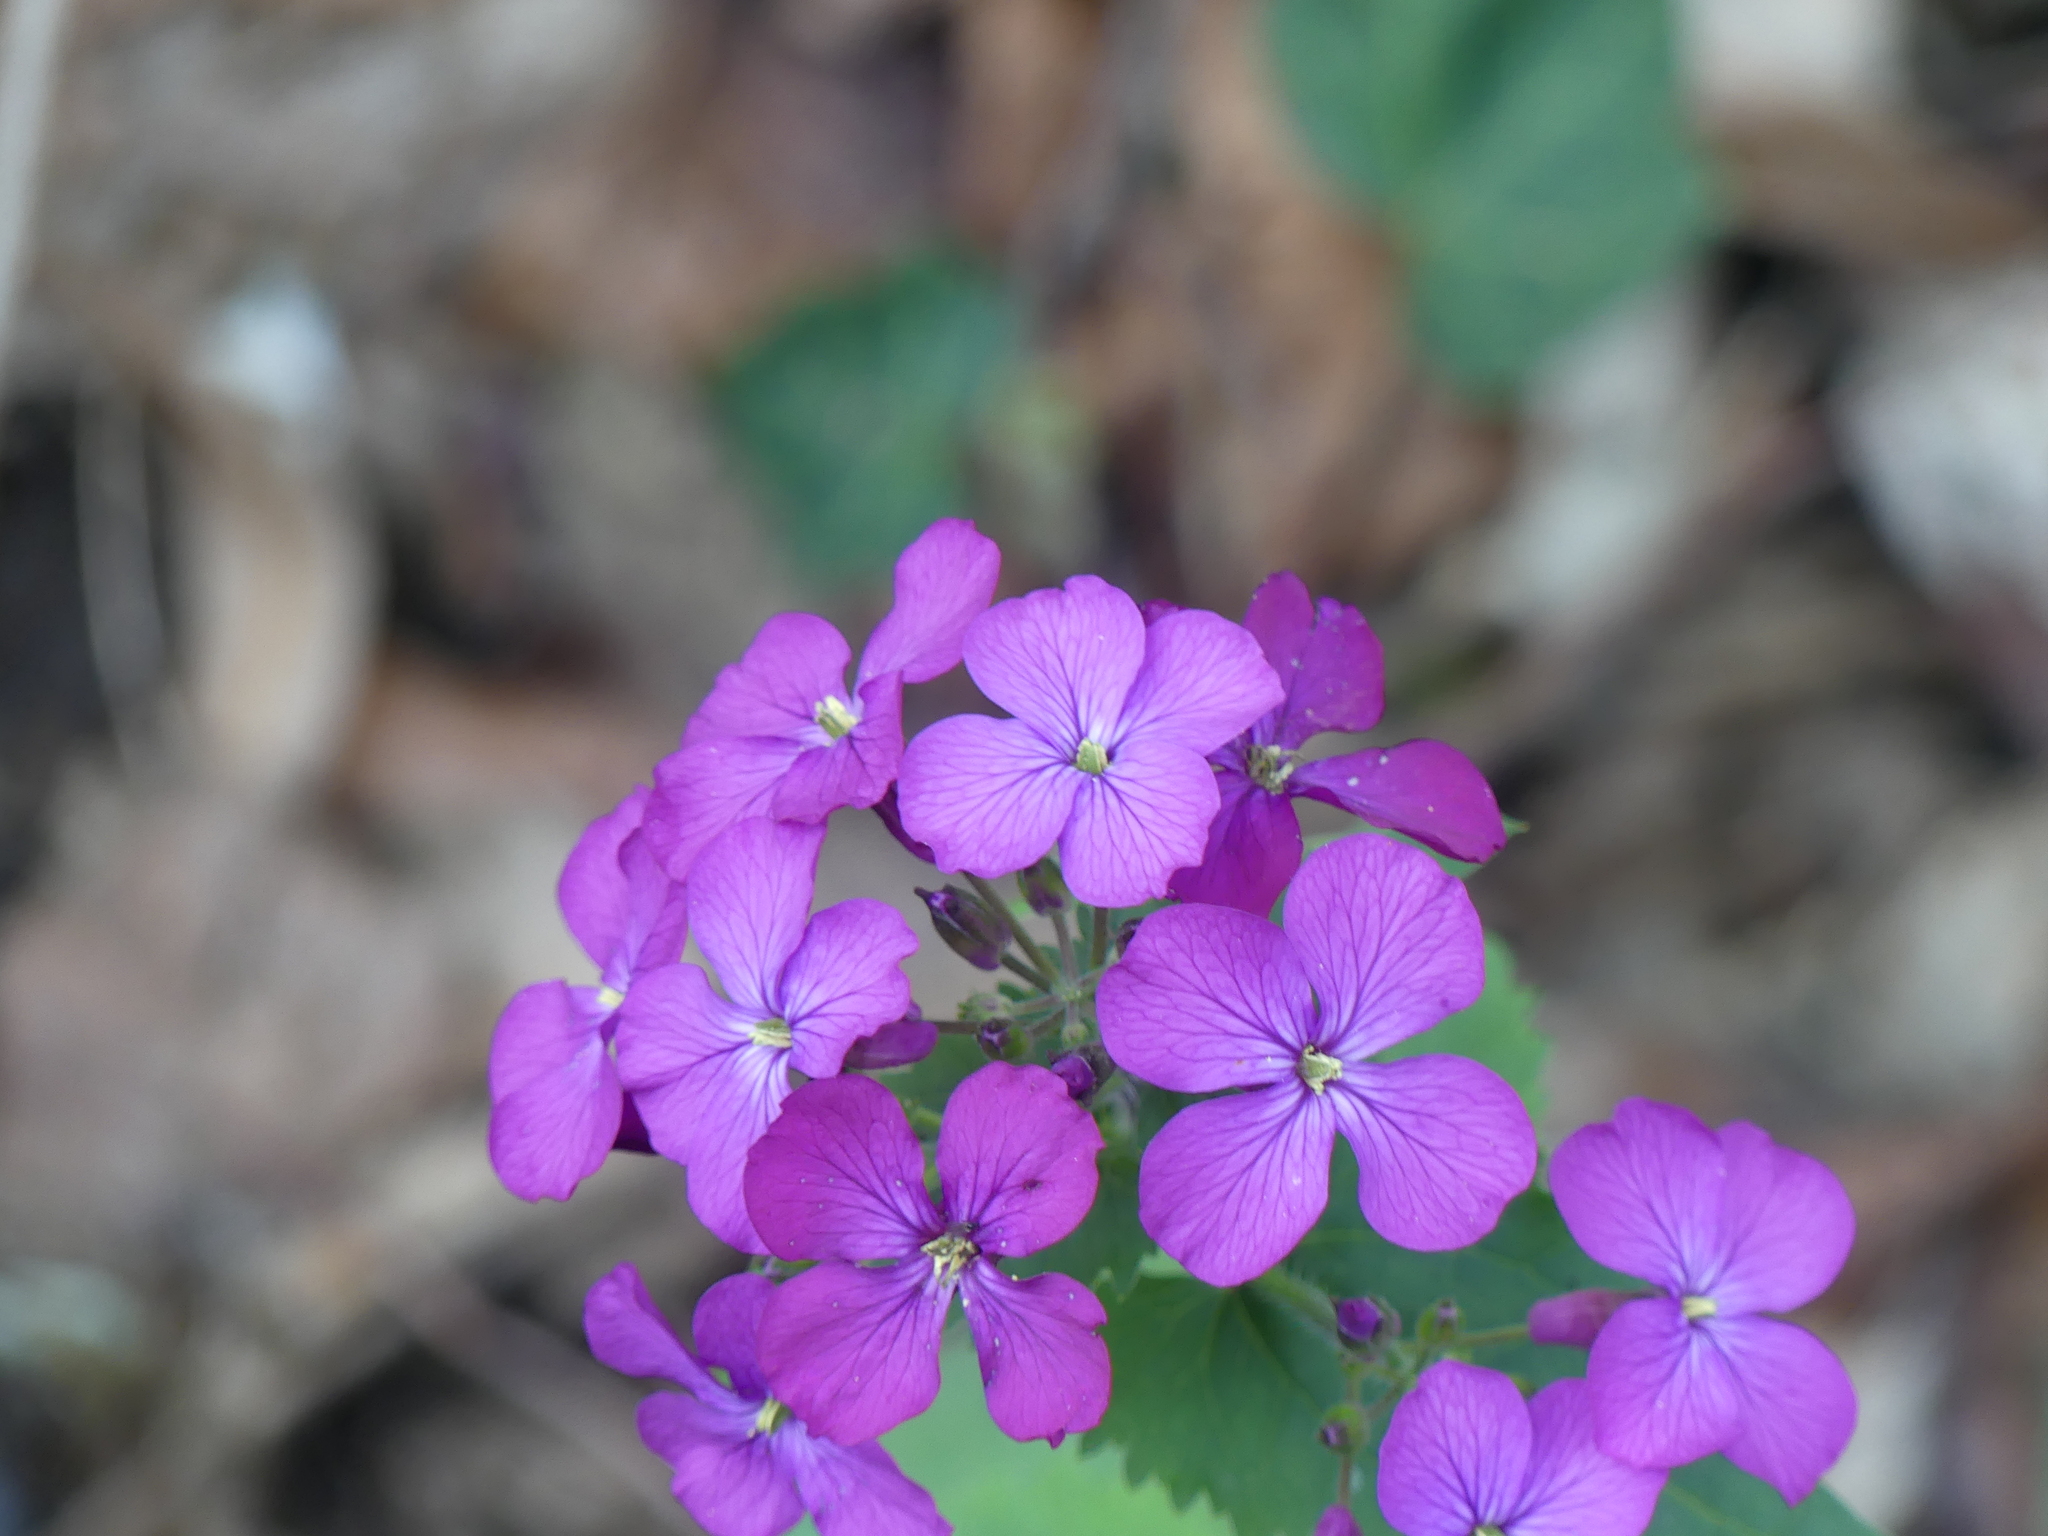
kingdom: Plantae
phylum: Tracheophyta
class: Magnoliopsida
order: Brassicales
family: Brassicaceae
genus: Lunaria
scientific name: Lunaria annua
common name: Honesty
